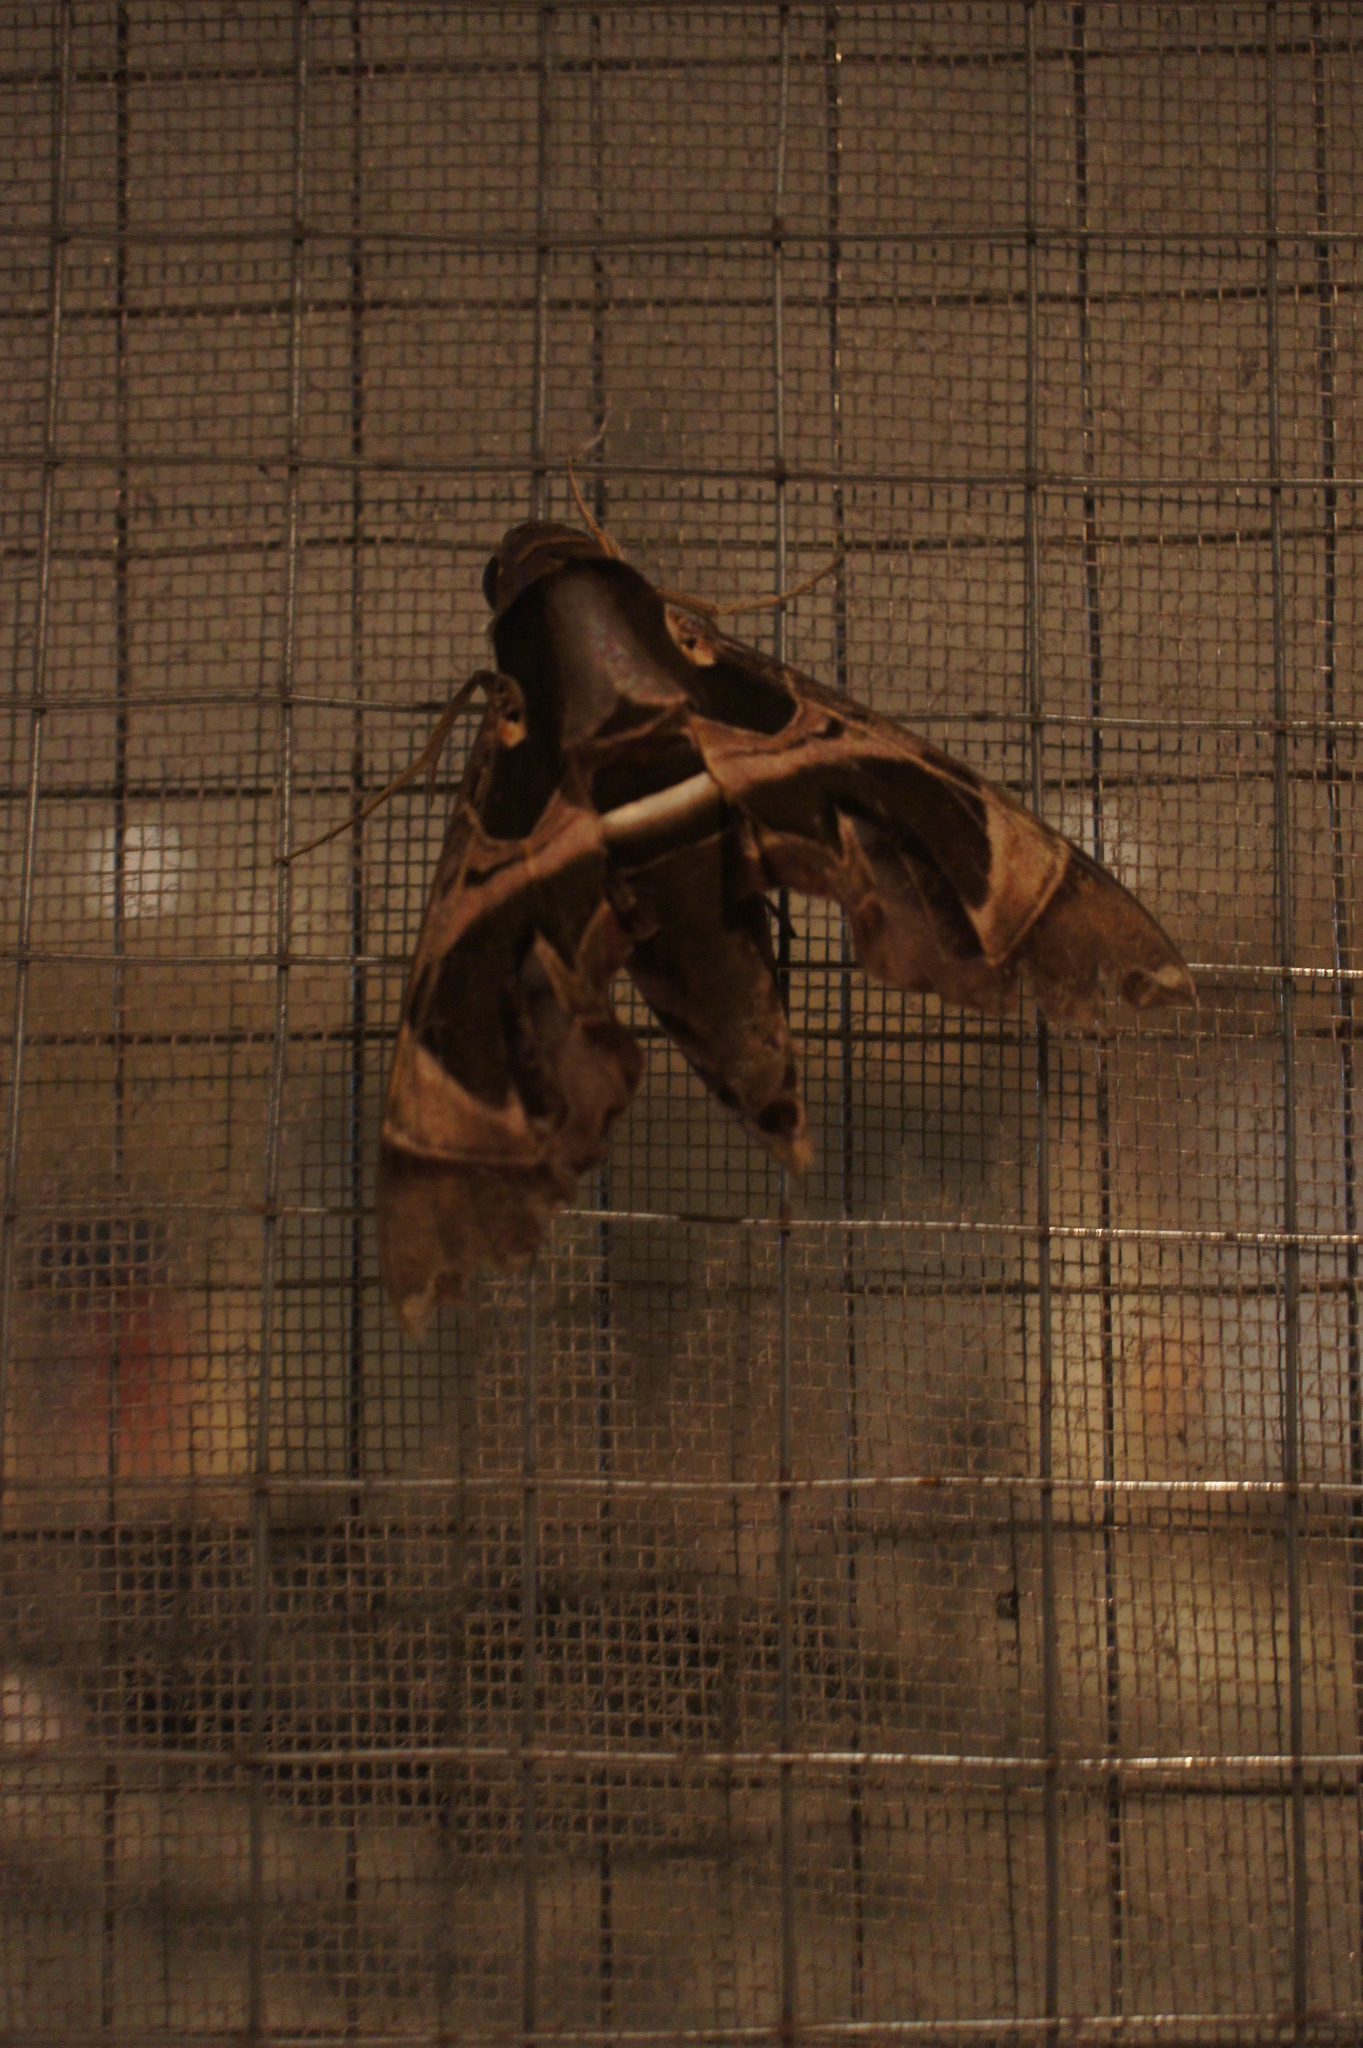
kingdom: Animalia
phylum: Arthropoda
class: Insecta
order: Lepidoptera
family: Sphingidae
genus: Daphnis
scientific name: Daphnis hypothous
